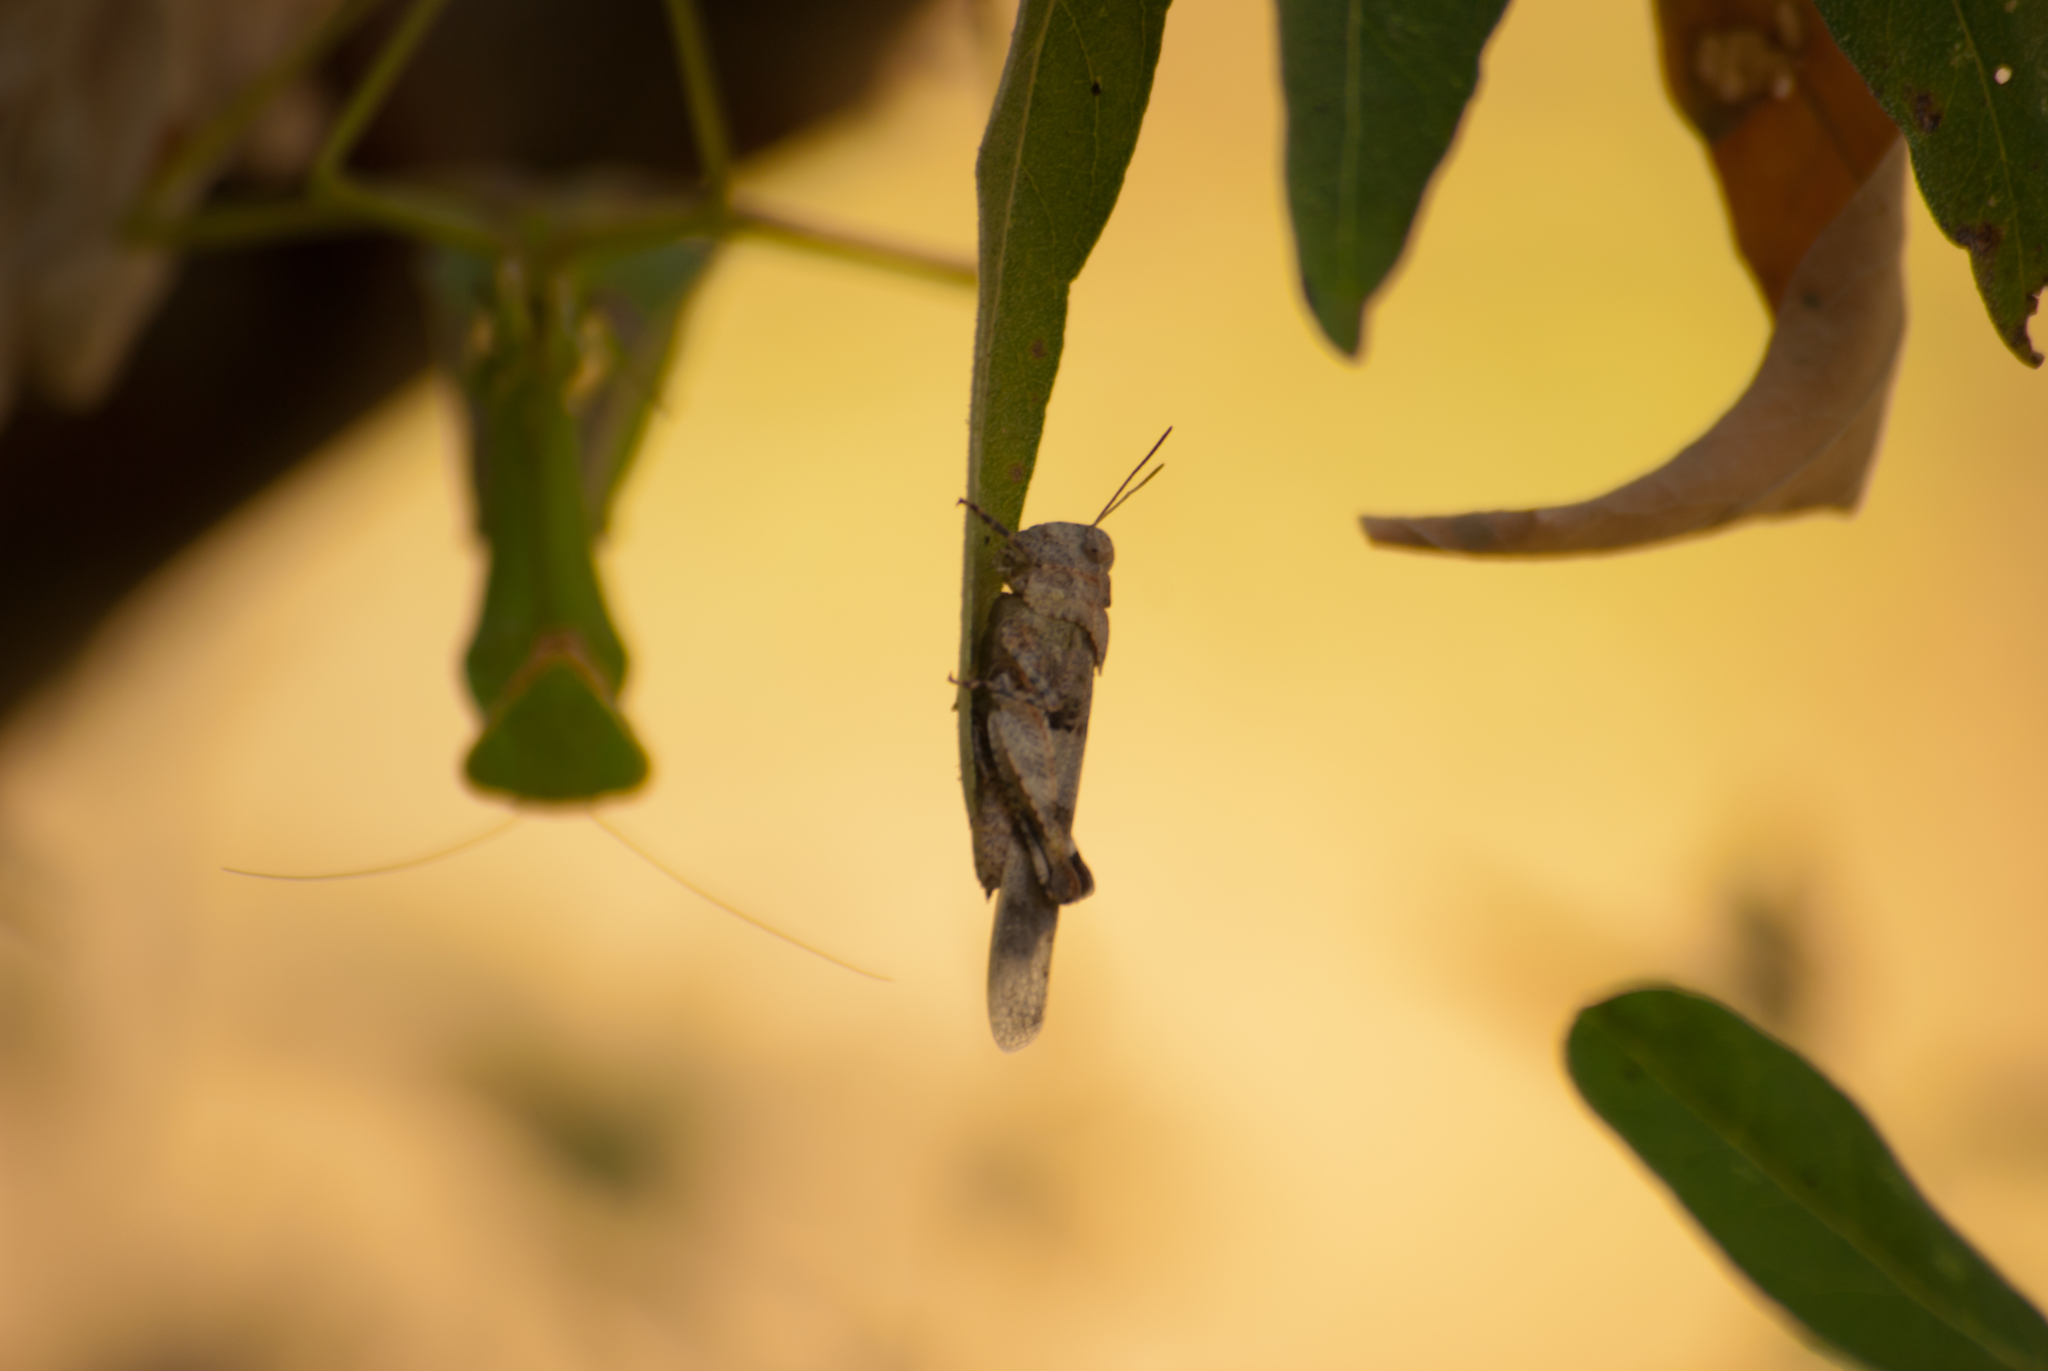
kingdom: Animalia
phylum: Arthropoda
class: Insecta
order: Orthoptera
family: Acrididae
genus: Oedipoda
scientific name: Oedipoda caerulescens
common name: Blue-winged grasshopper
